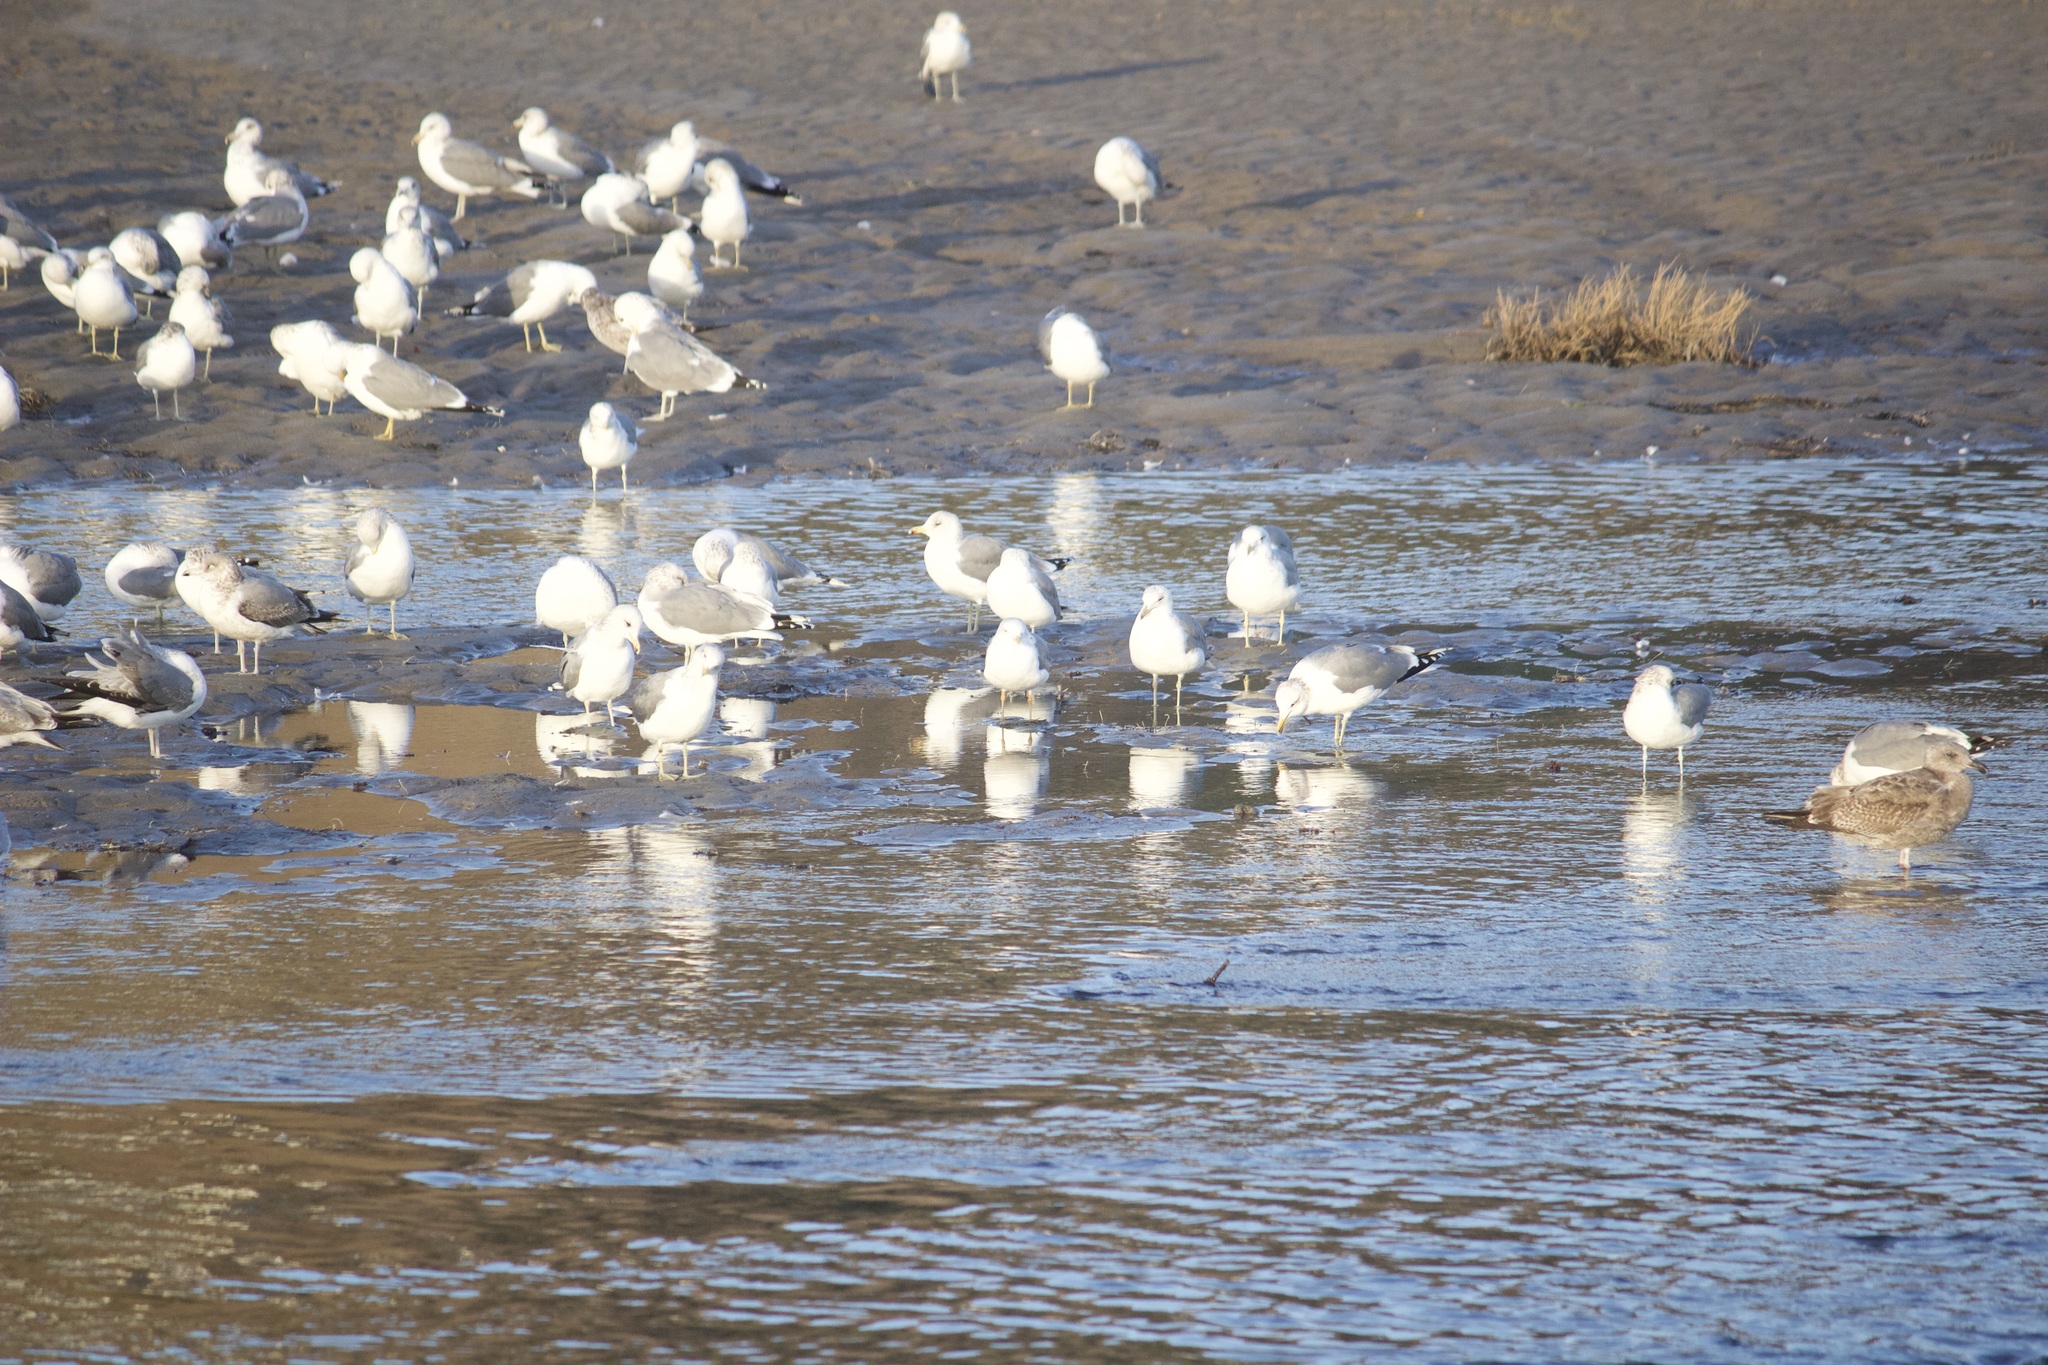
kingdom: Animalia
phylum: Chordata
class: Aves
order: Charadriiformes
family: Laridae
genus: Larus
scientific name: Larus californicus
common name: California gull
